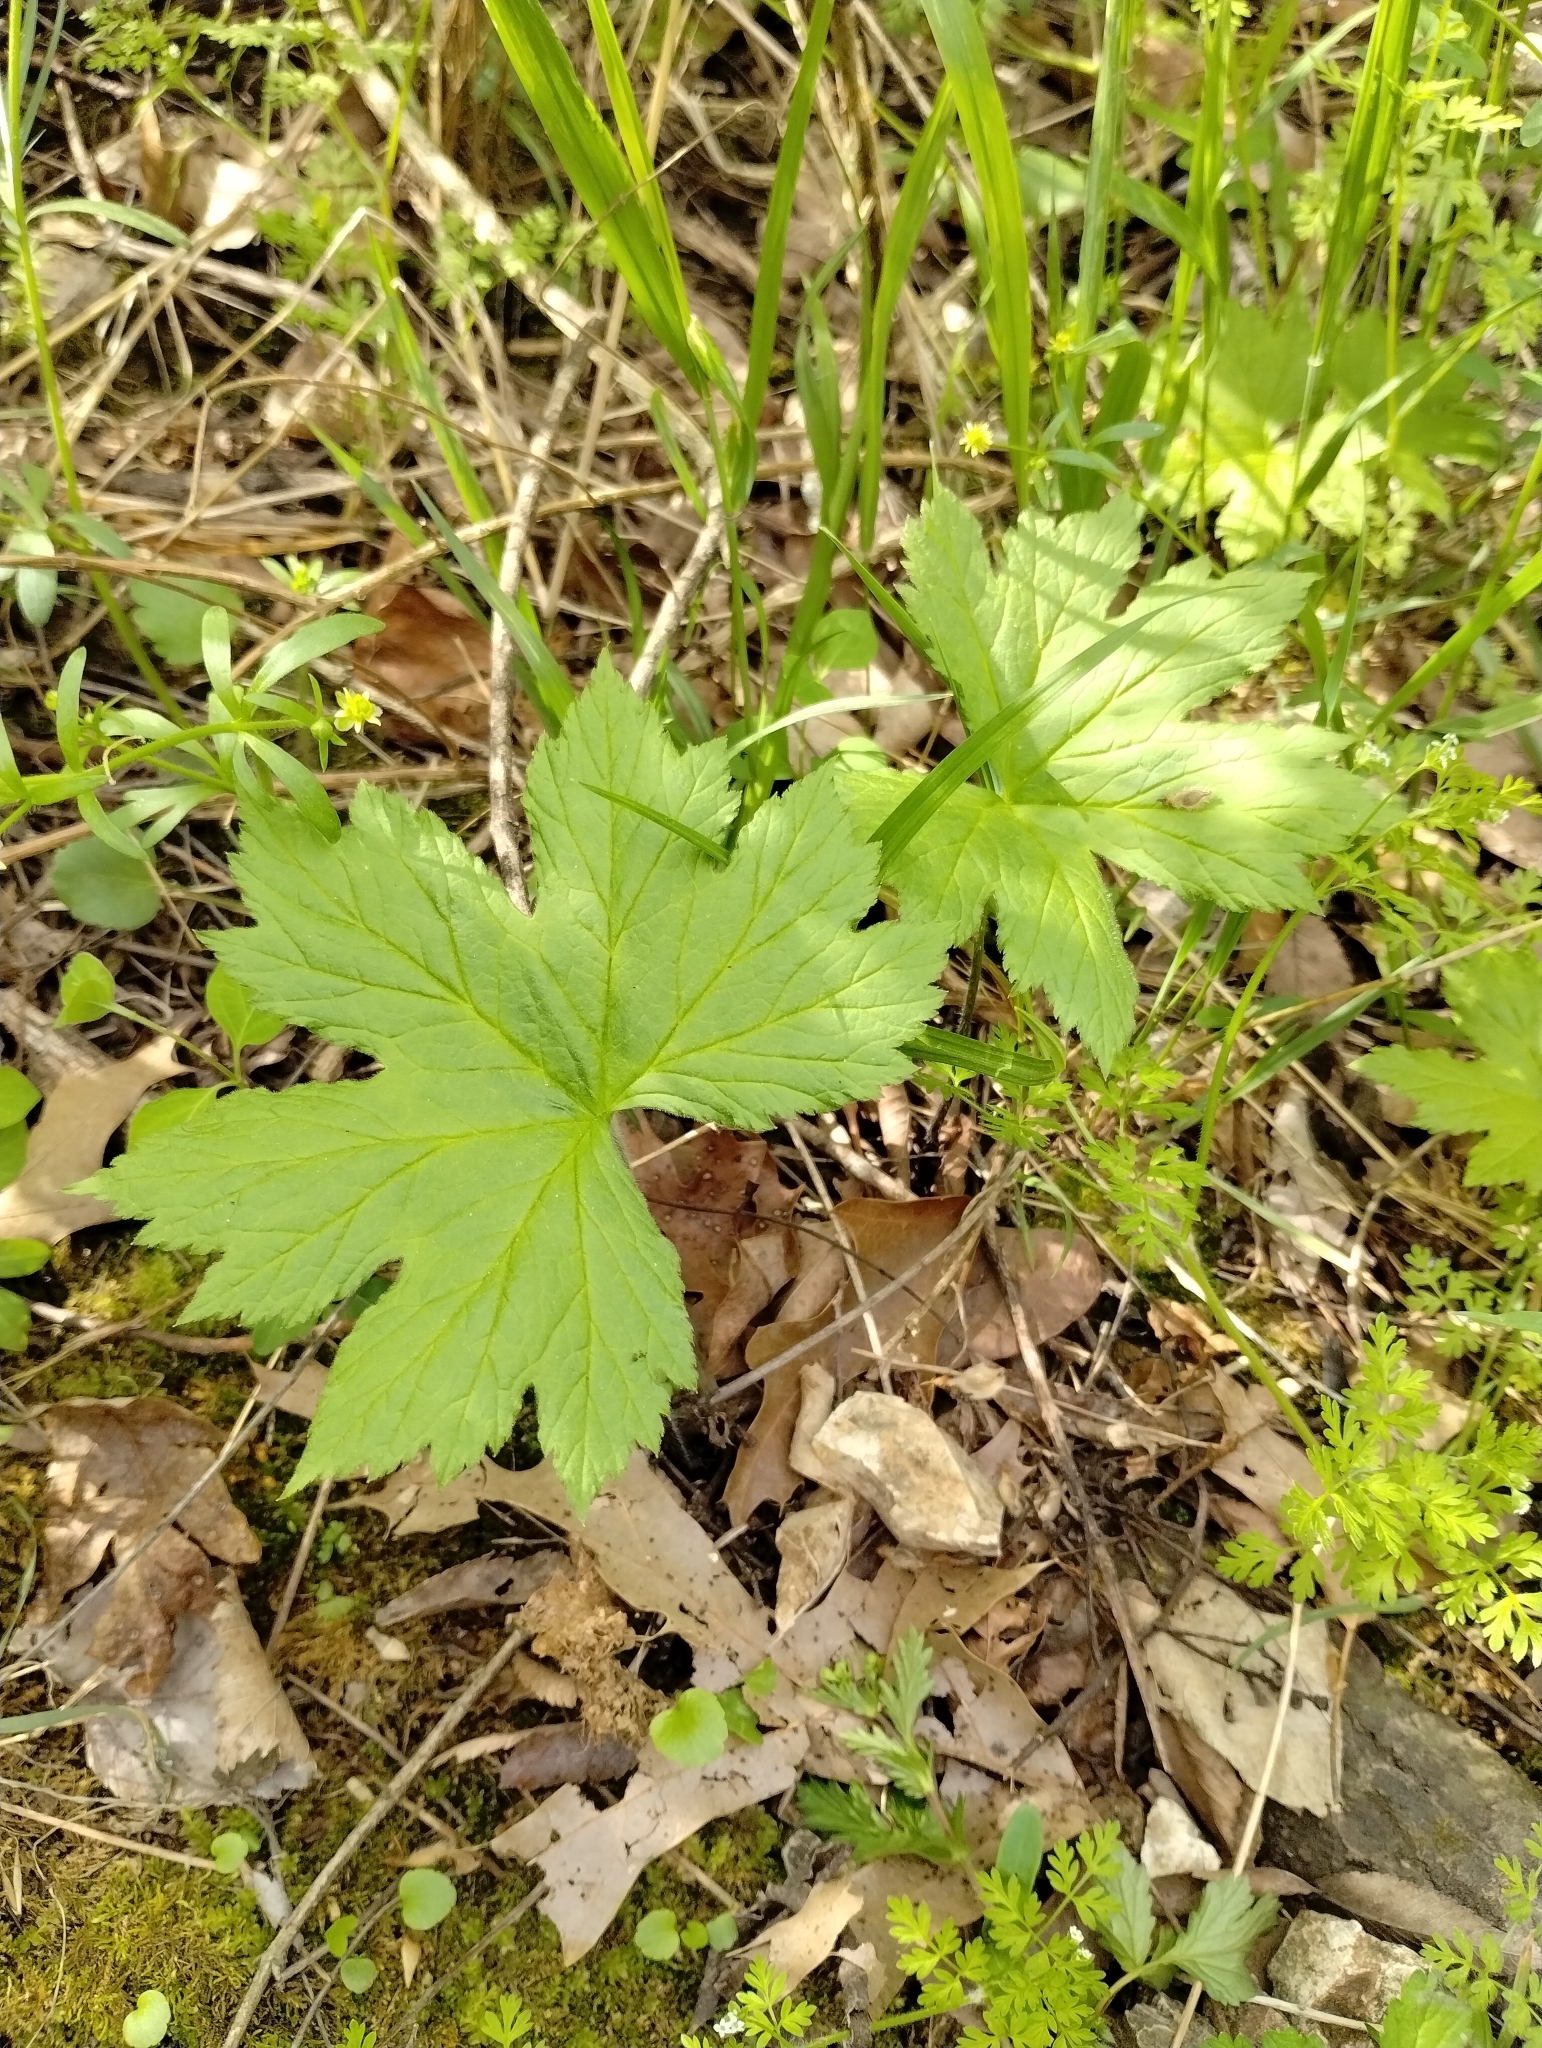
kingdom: Plantae
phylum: Tracheophyta
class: Magnoliopsida
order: Ranunculales
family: Ranunculaceae
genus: Hydrastis
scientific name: Hydrastis canadensis
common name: Goldenseal
